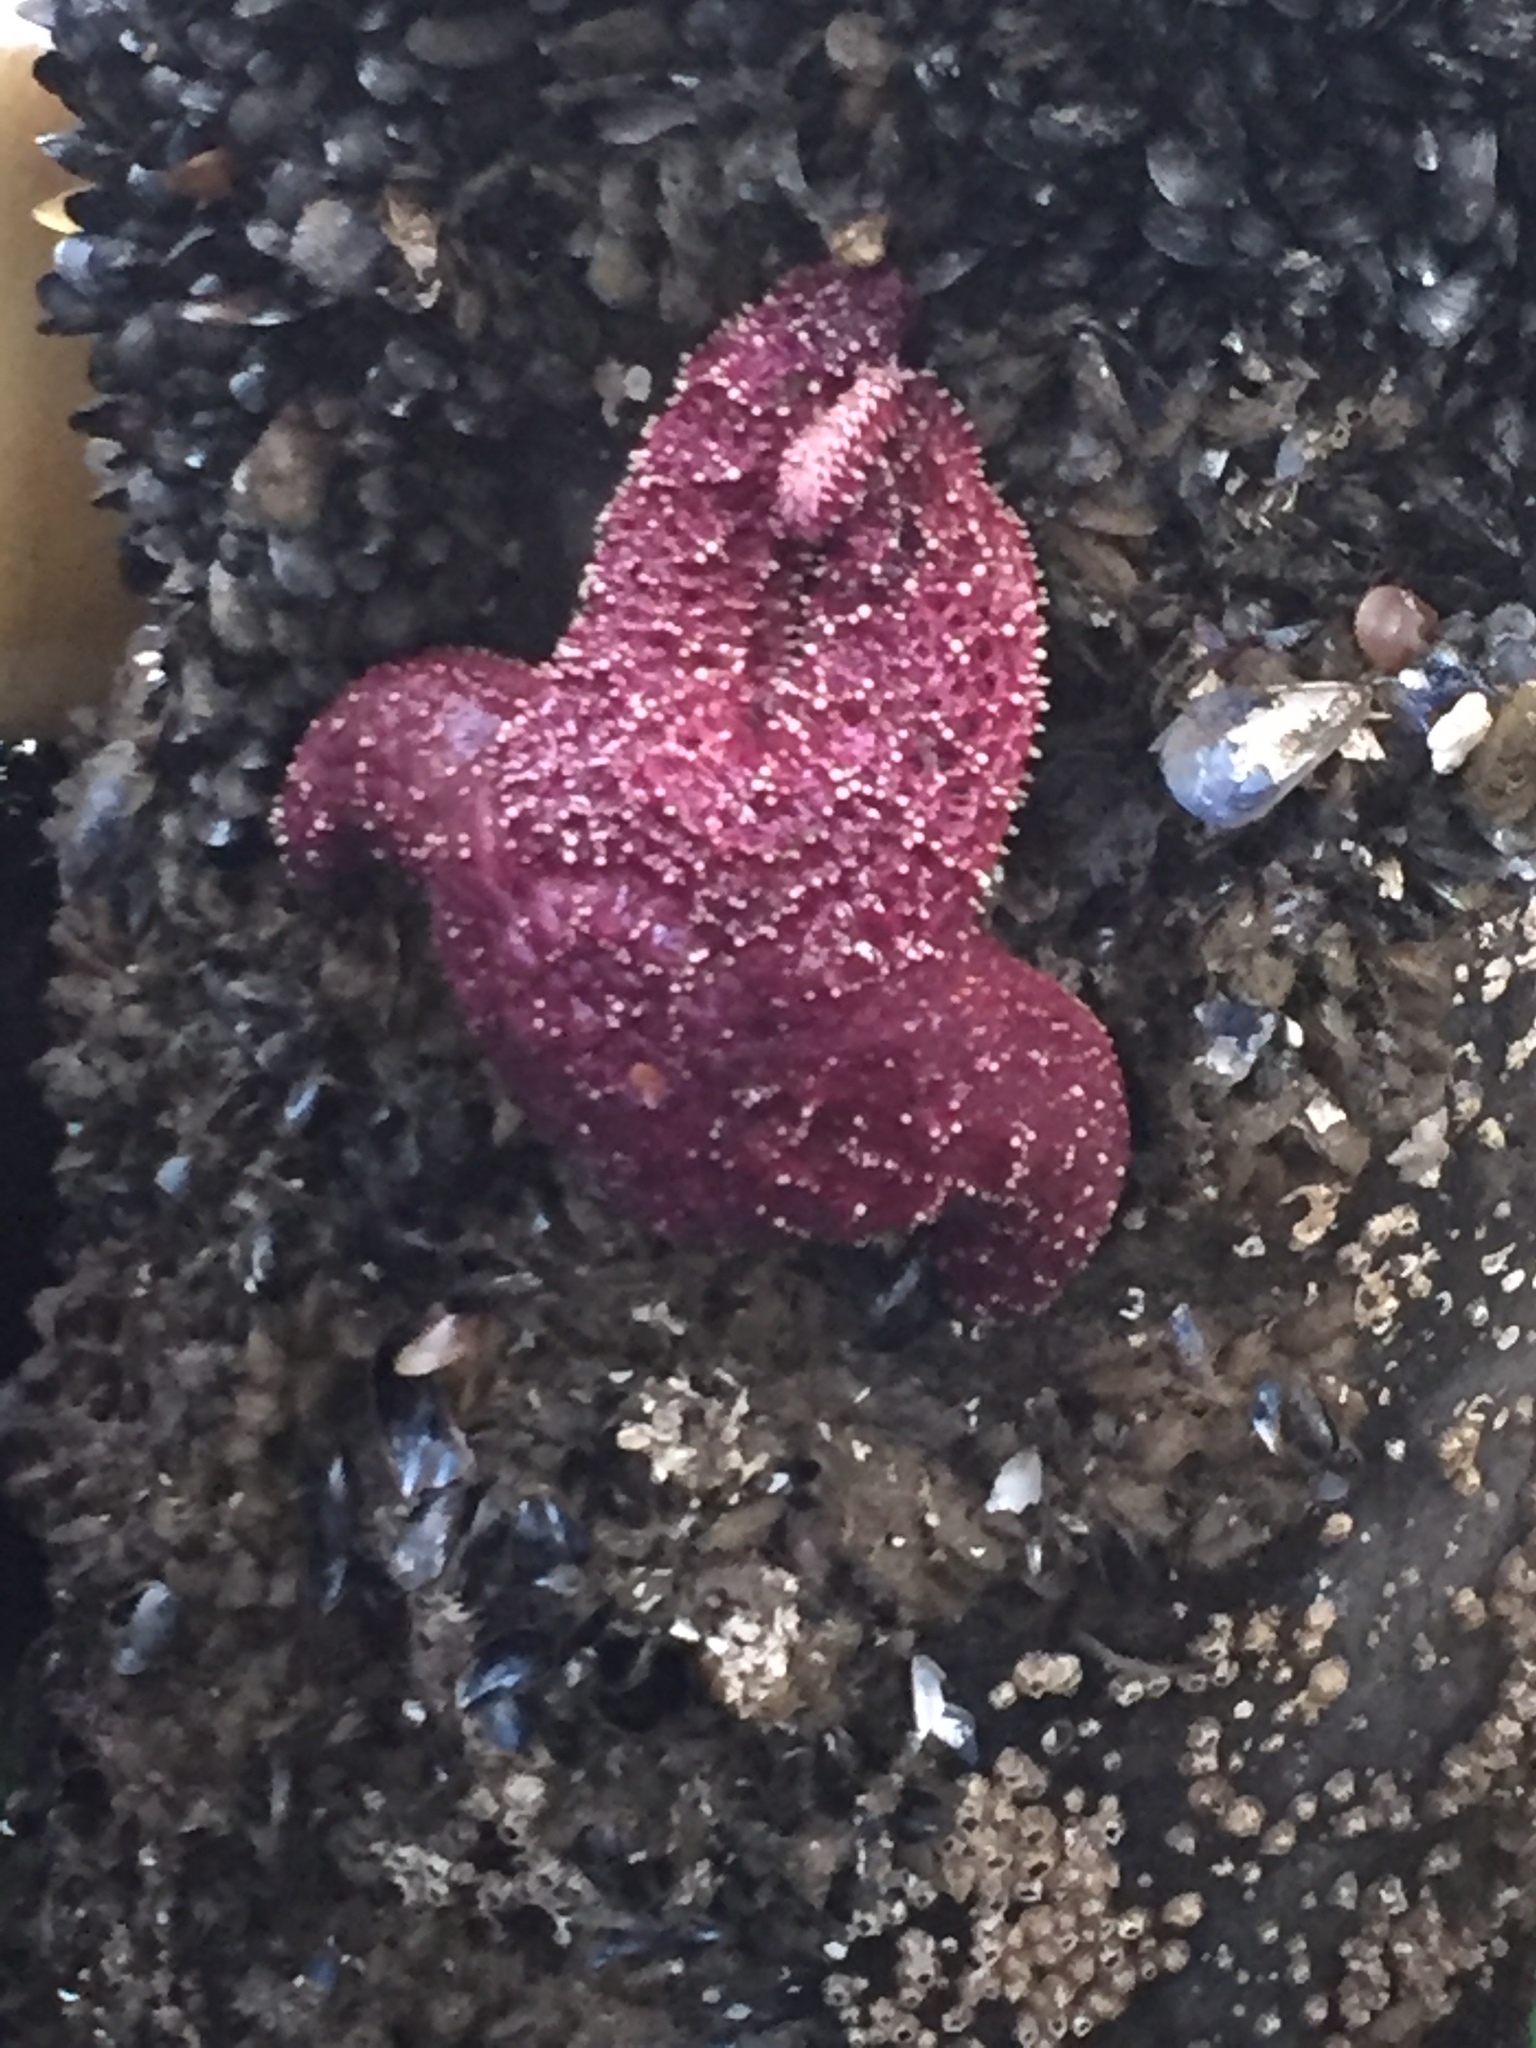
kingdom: Animalia
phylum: Echinodermata
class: Asteroidea
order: Forcipulatida
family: Asteriidae
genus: Pisaster
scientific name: Pisaster ochraceus
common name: Ochre stars
